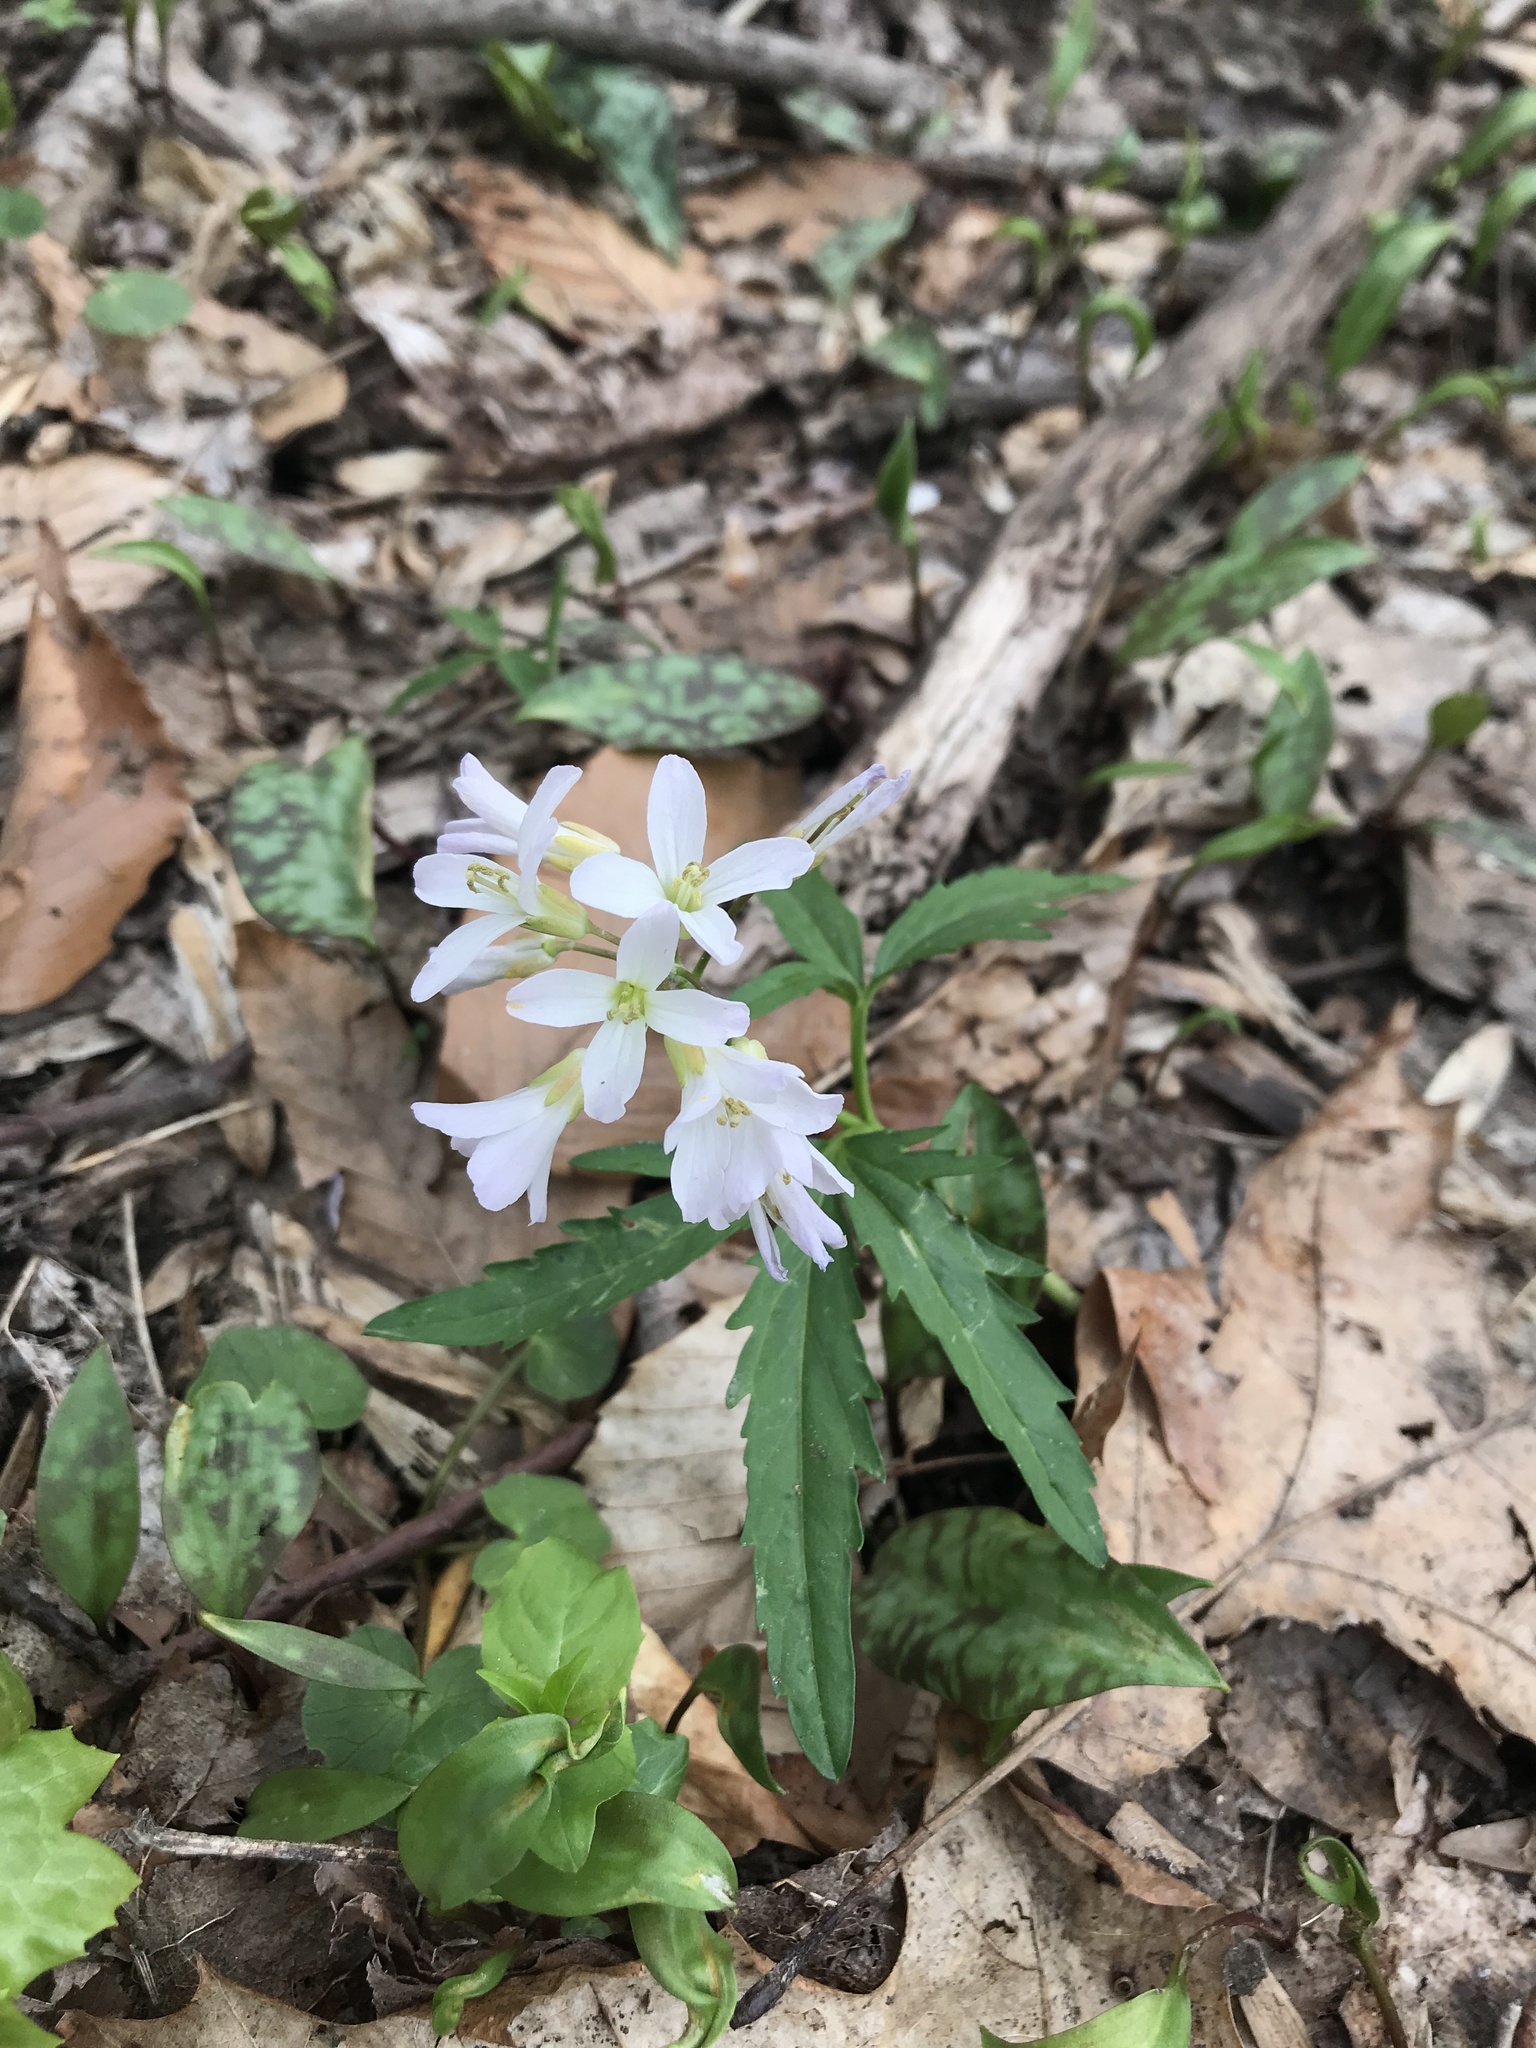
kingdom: Plantae
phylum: Tracheophyta
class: Magnoliopsida
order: Brassicales
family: Brassicaceae
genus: Cardamine
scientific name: Cardamine concatenata
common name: Cut-leaf toothcup
